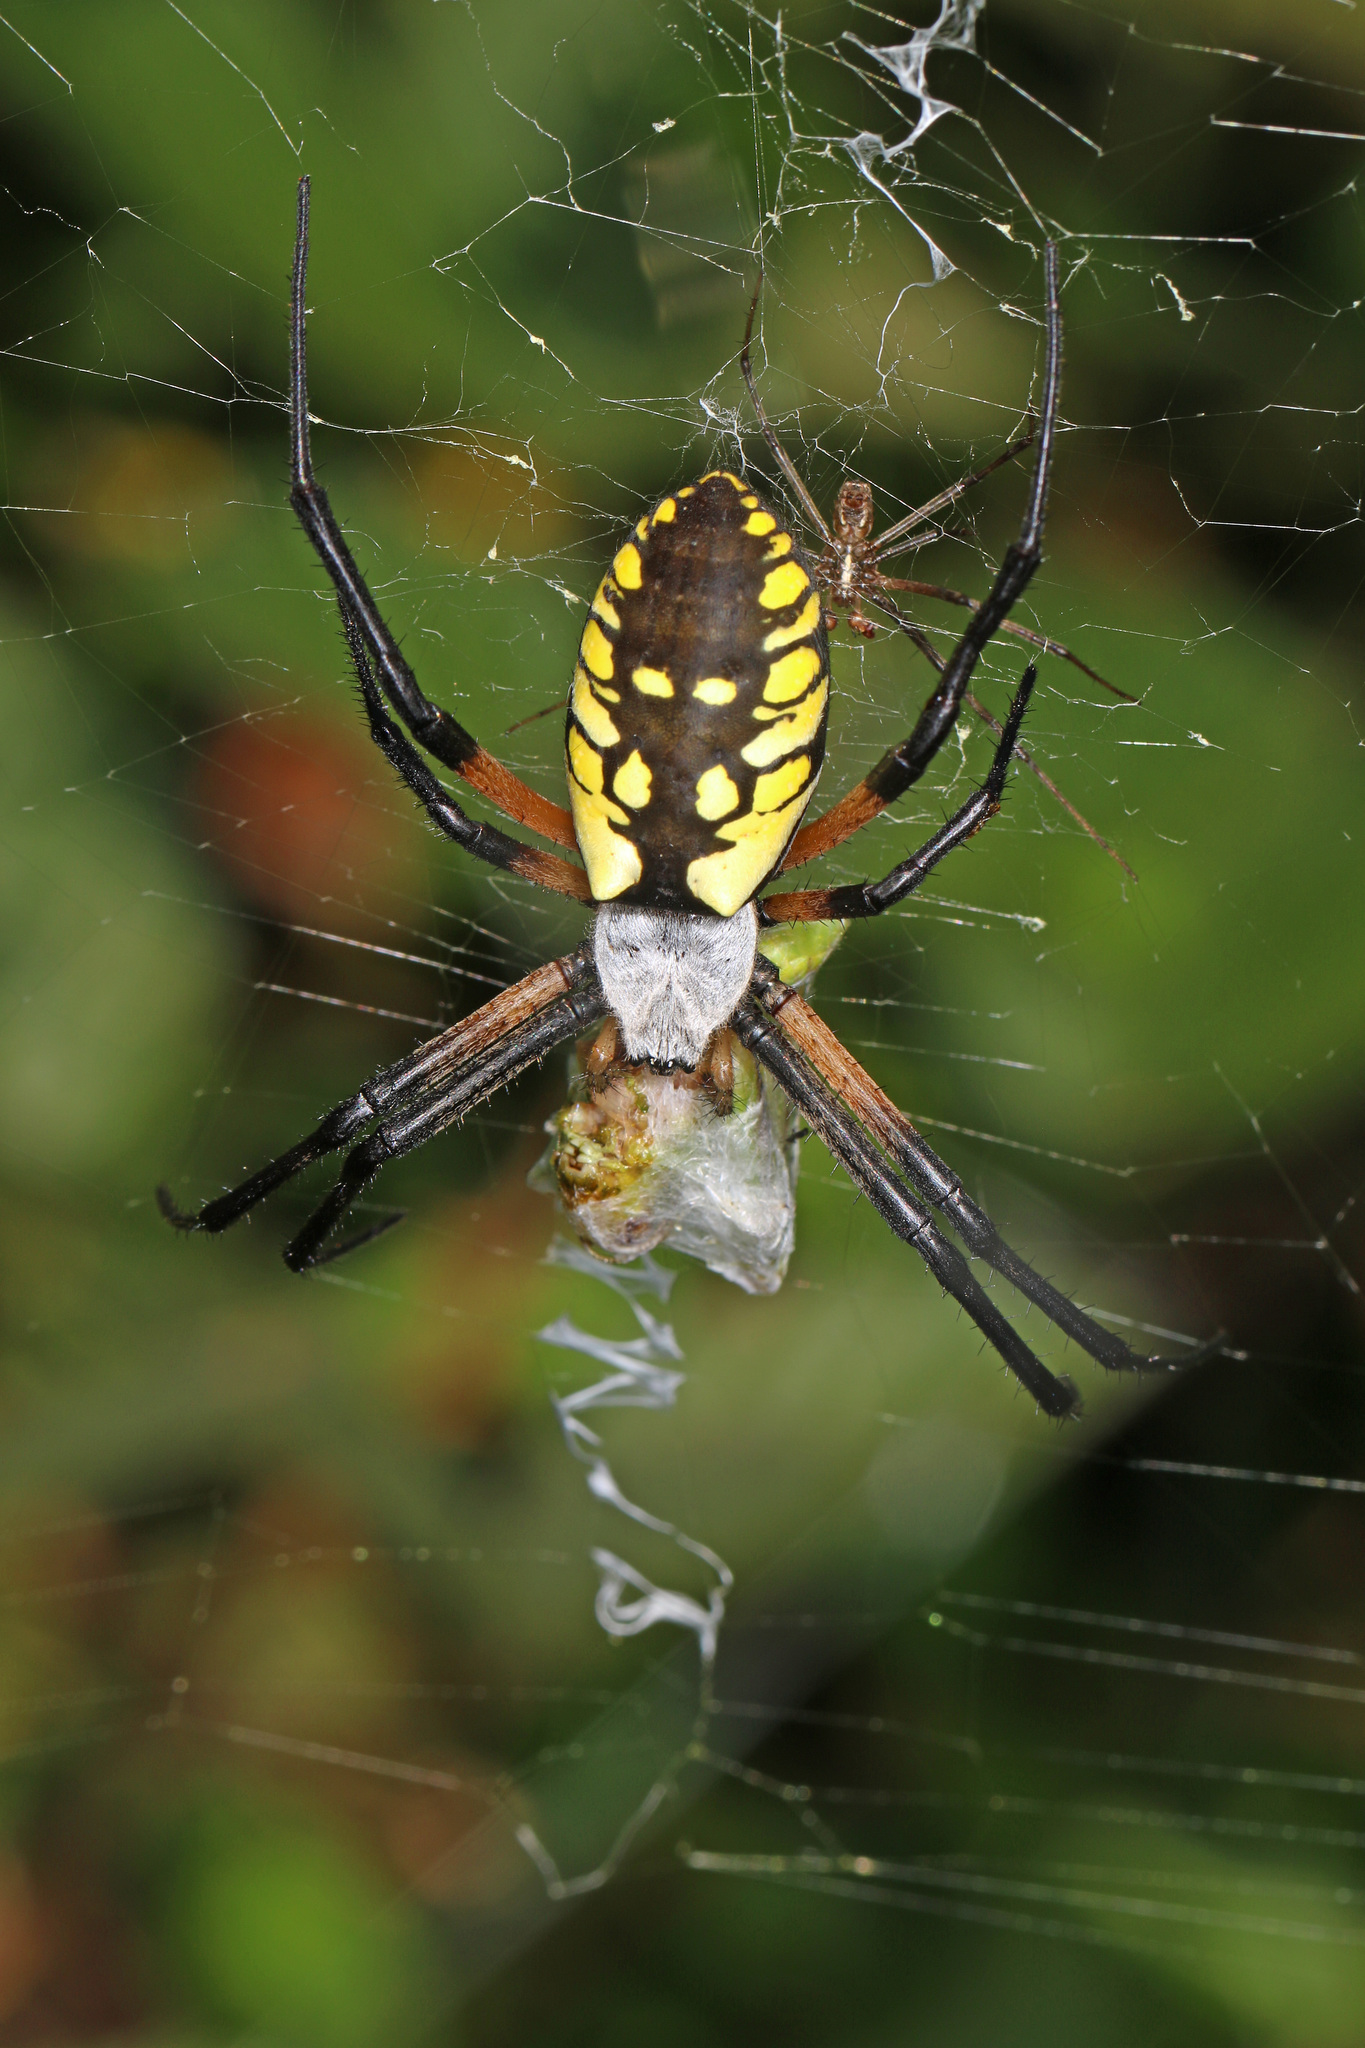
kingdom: Animalia
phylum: Arthropoda
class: Arachnida
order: Araneae
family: Araneidae
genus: Argiope
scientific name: Argiope aurantia
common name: Orb weavers
